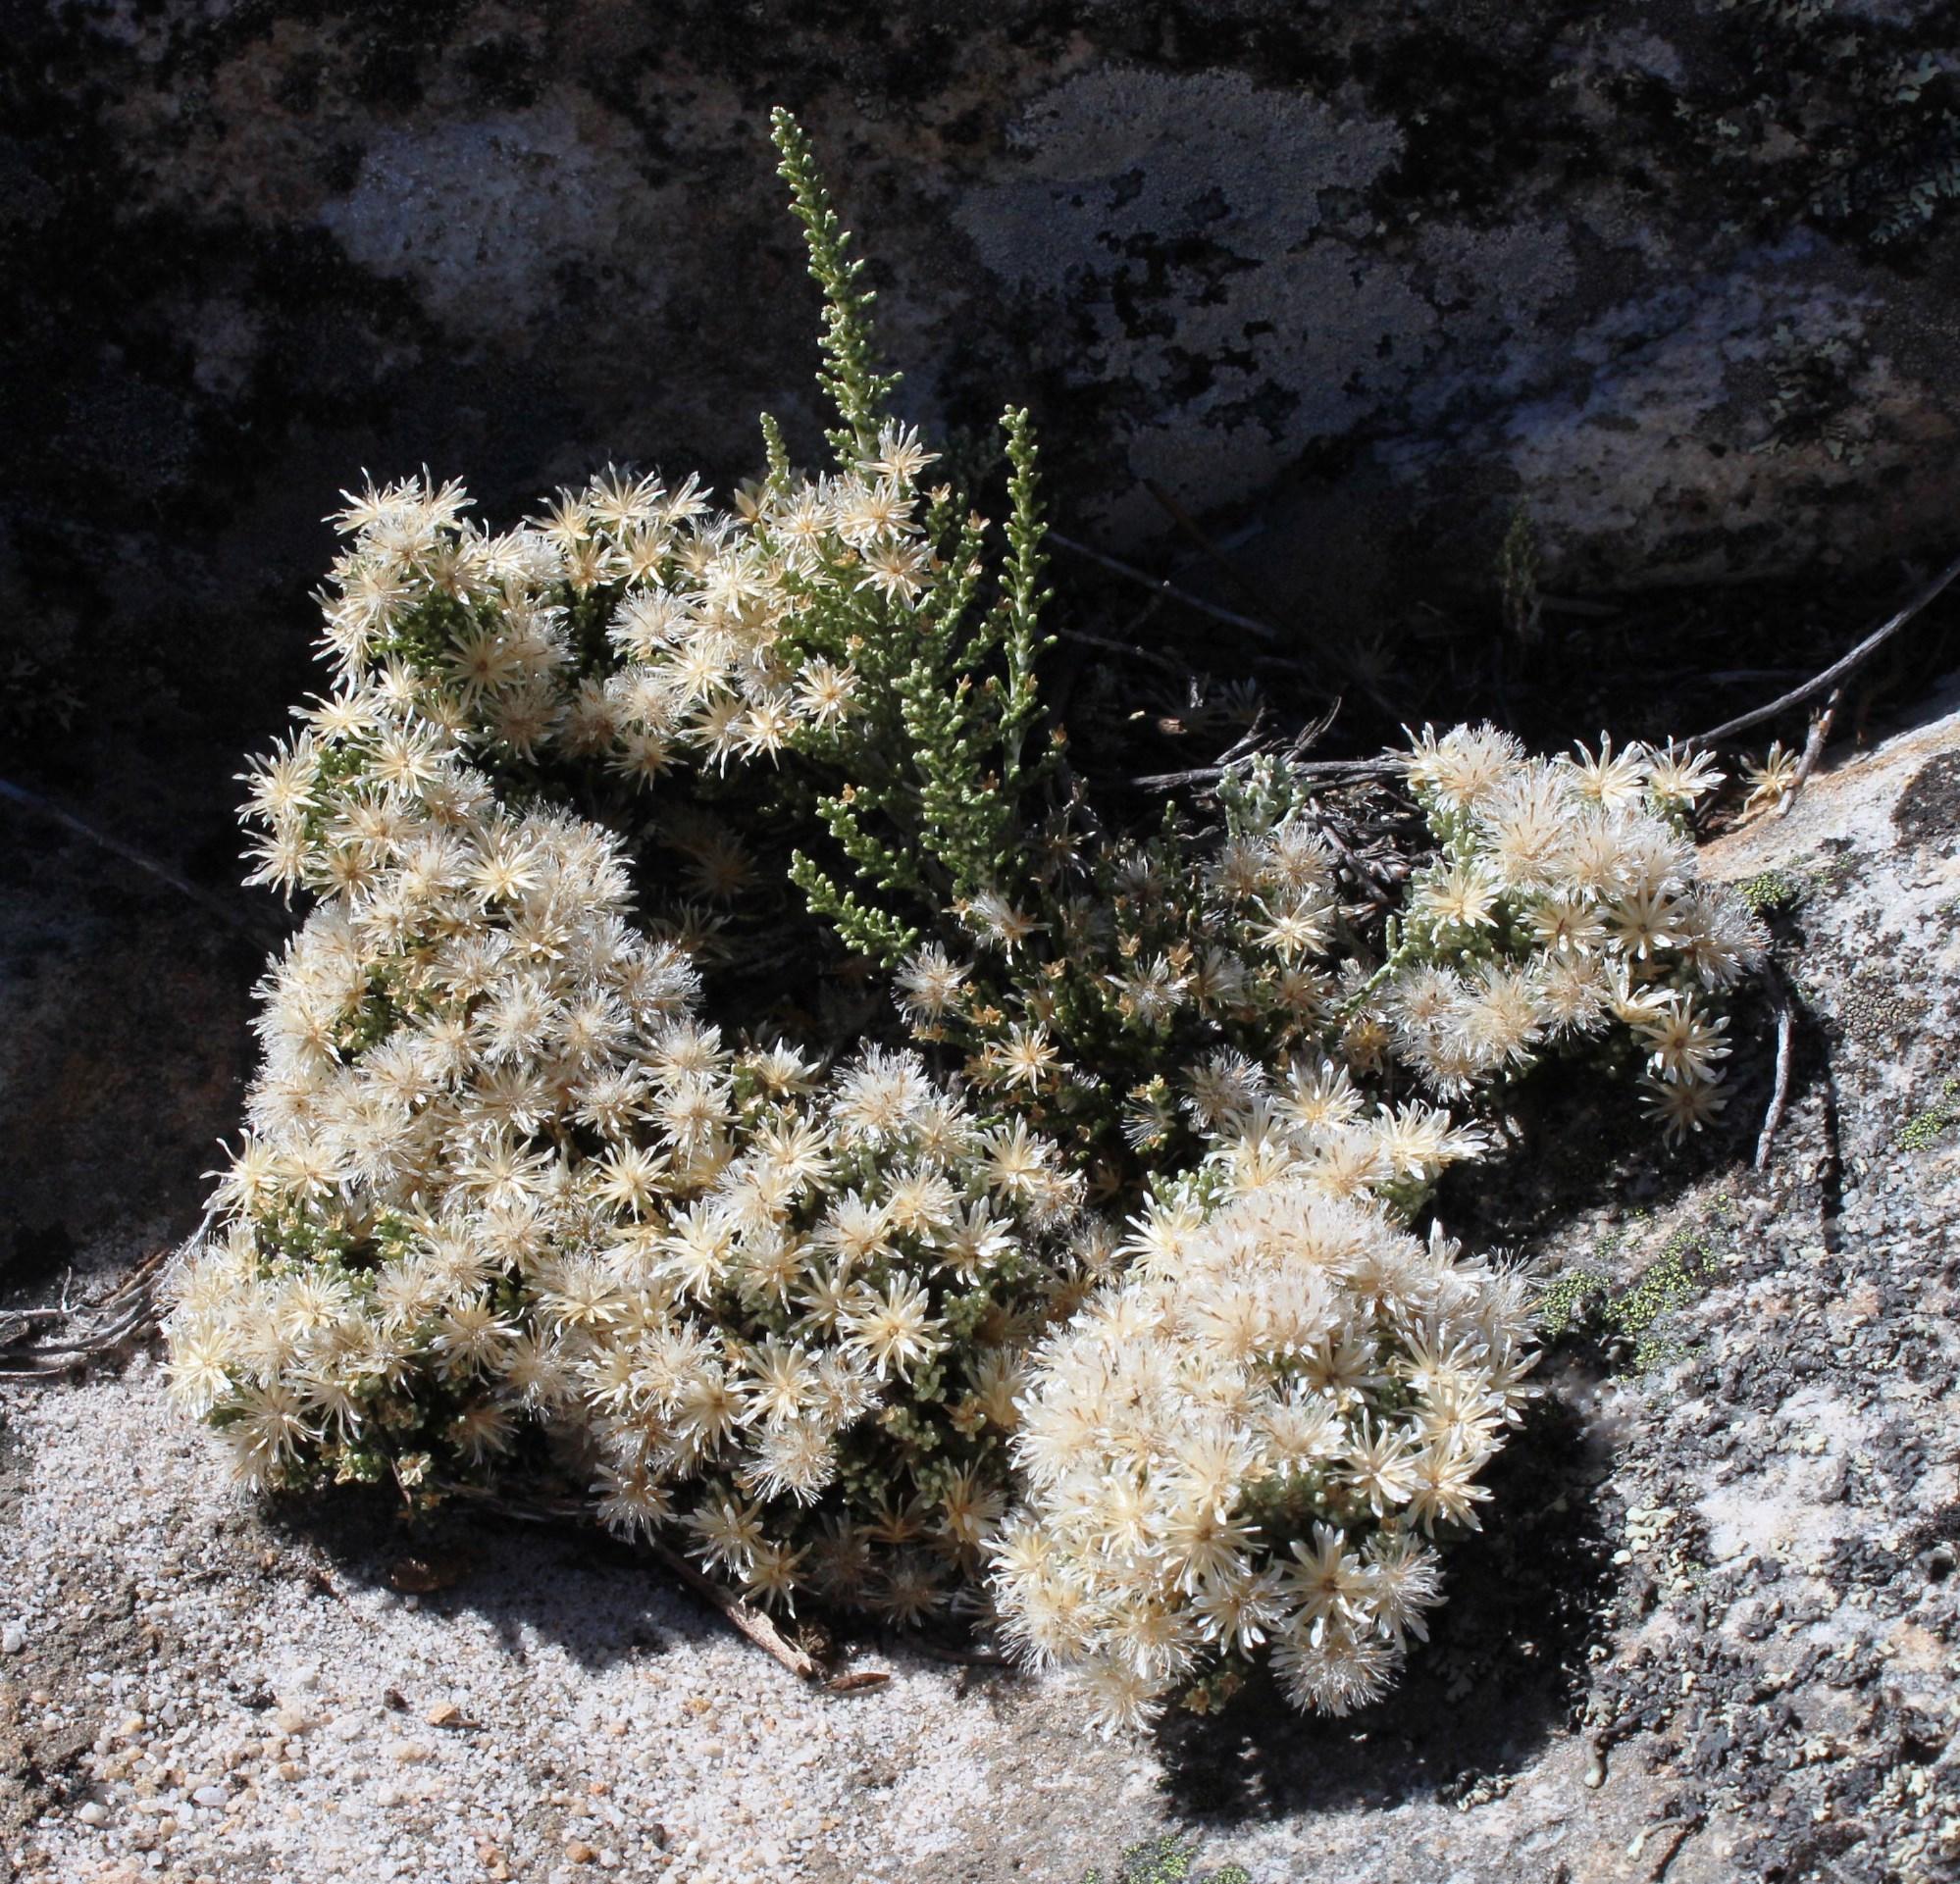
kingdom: Plantae
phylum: Tracheophyta
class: Magnoliopsida
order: Asterales
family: Asteraceae
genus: Dolichothrix
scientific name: Dolichothrix ericoides
